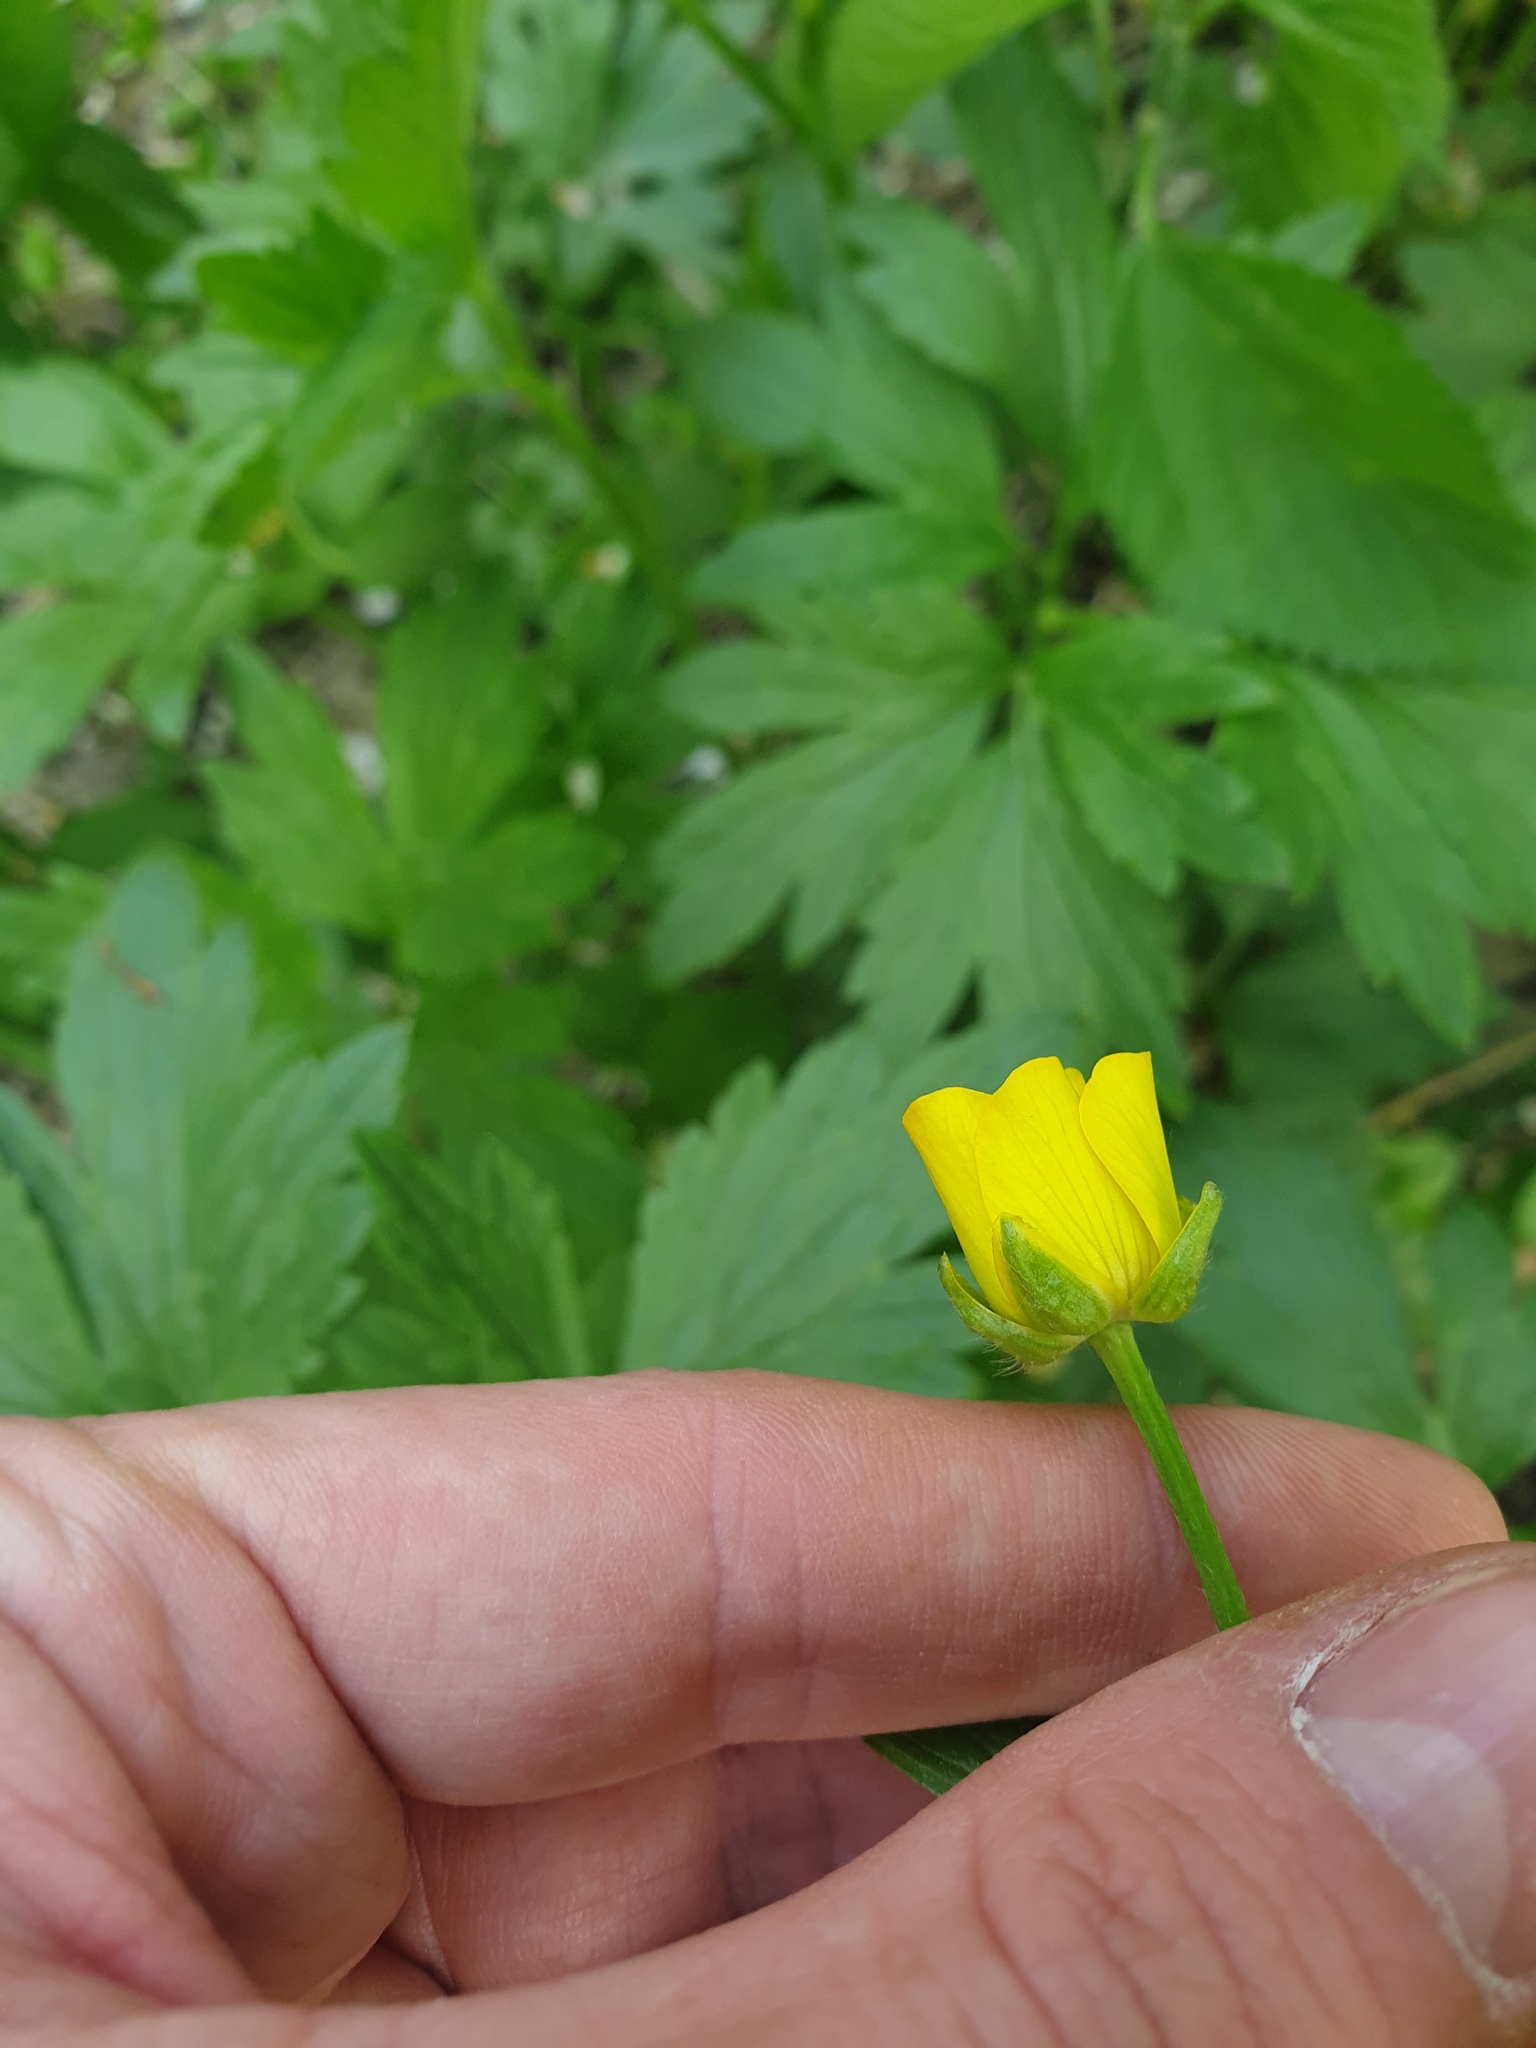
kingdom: Plantae
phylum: Tracheophyta
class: Magnoliopsida
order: Ranunculales
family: Ranunculaceae
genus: Ranunculus
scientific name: Ranunculus hispidus
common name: Bristly buttercup
